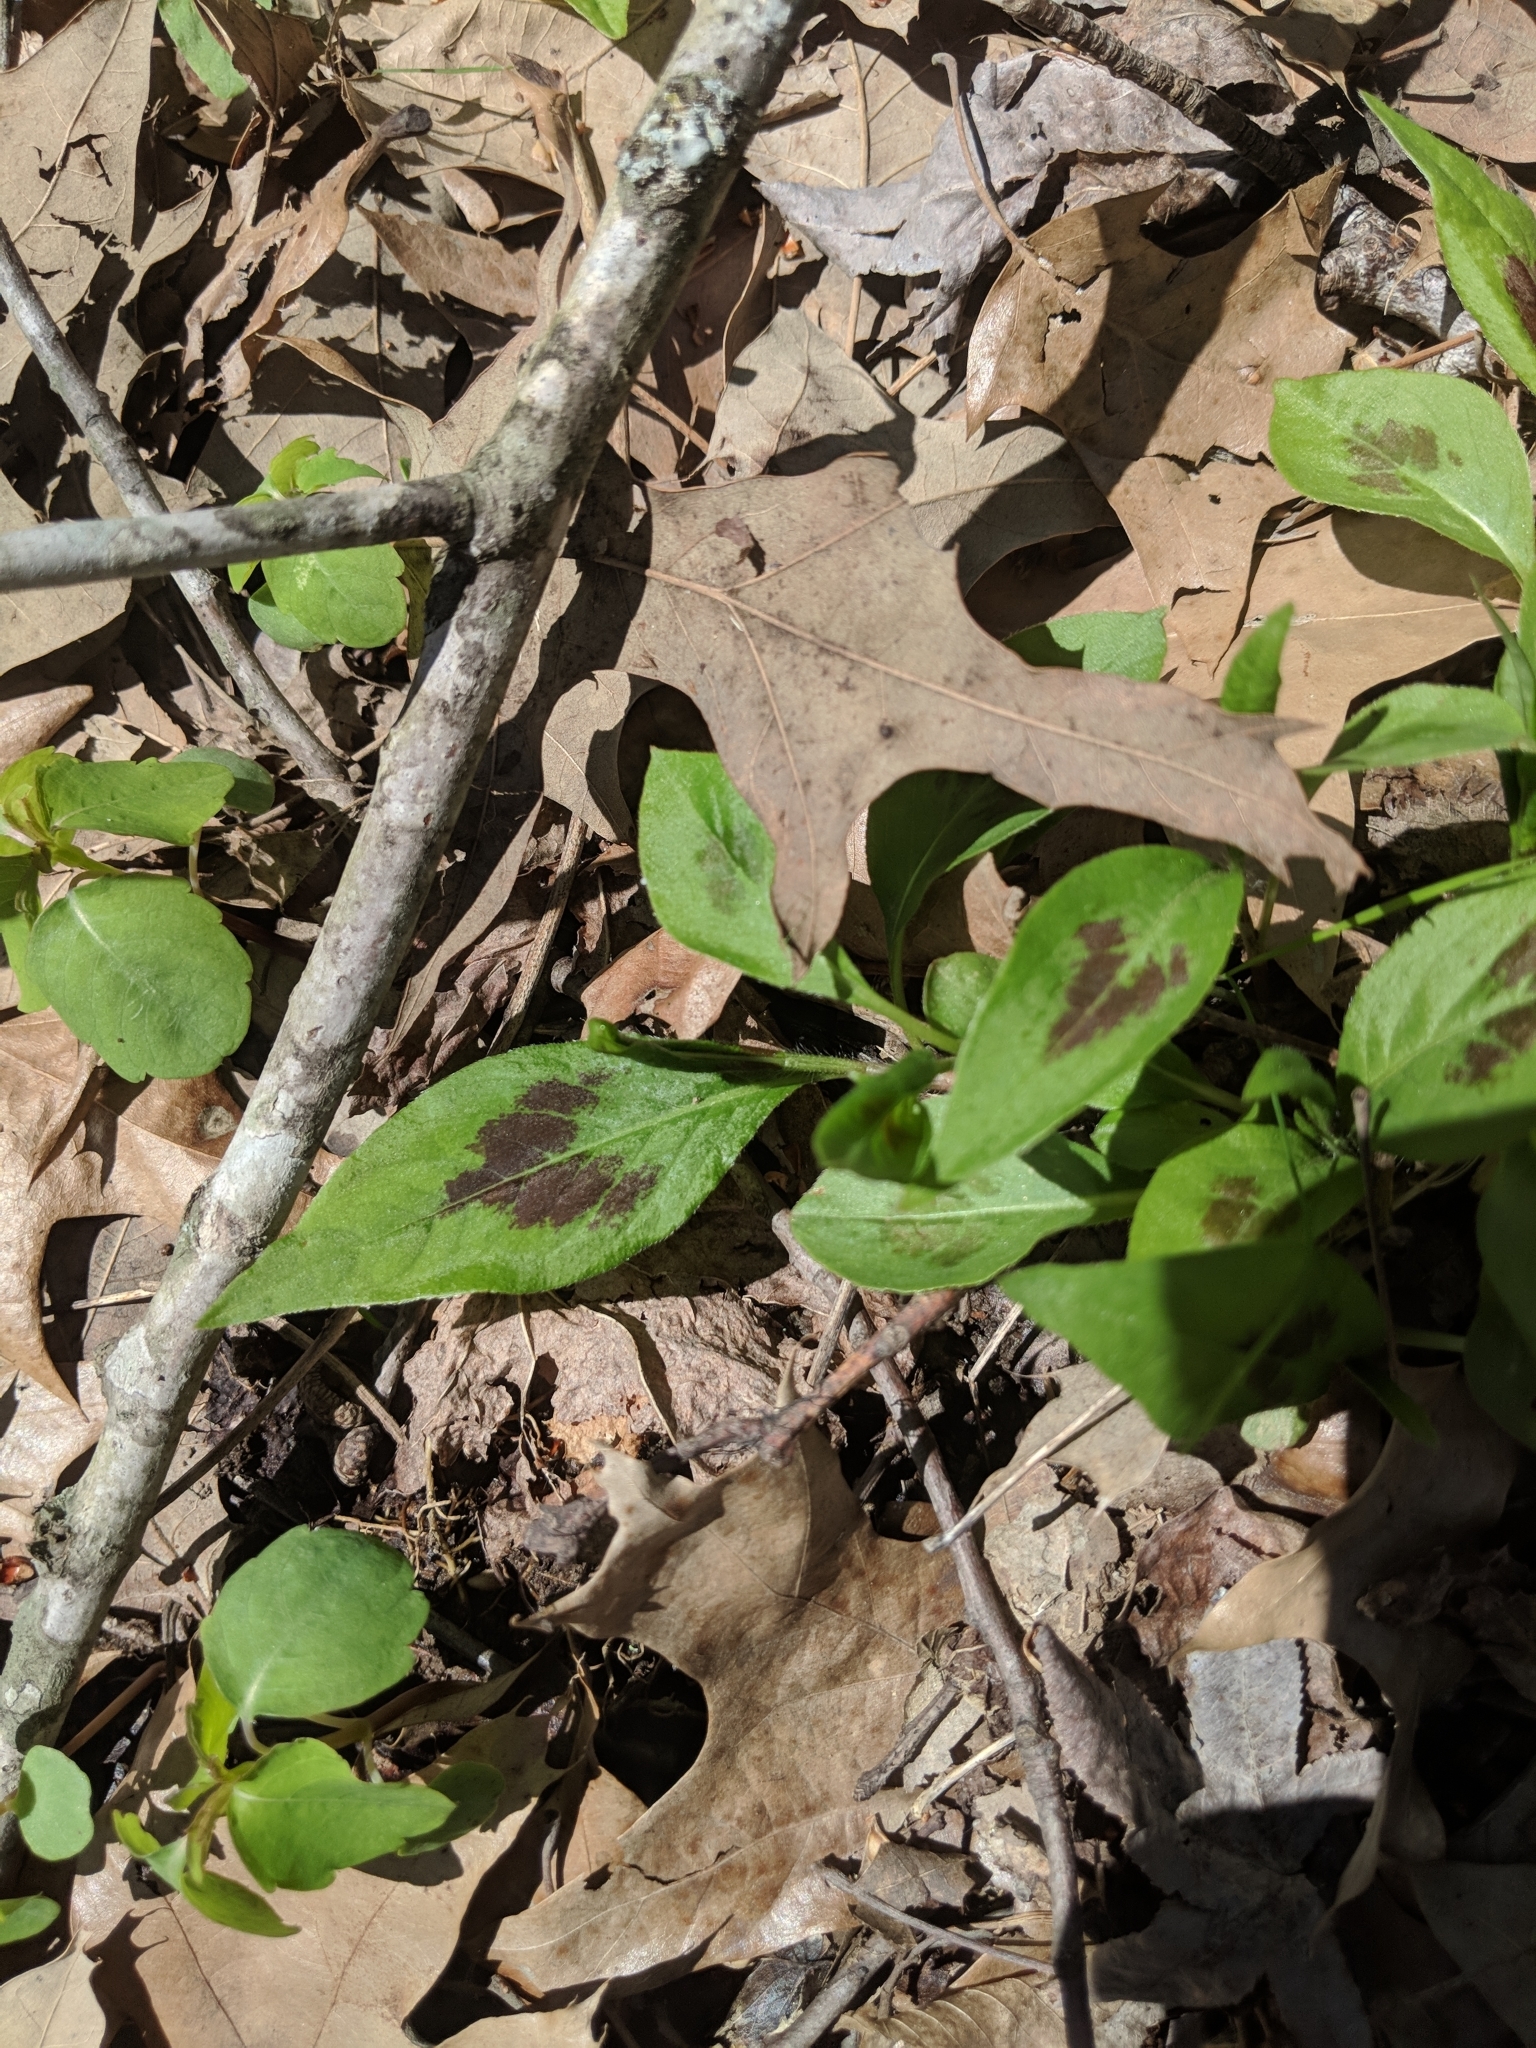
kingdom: Plantae
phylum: Tracheophyta
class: Magnoliopsida
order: Caryophyllales
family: Polygonaceae
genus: Persicaria
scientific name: Persicaria virginiana
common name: Jumpseed
